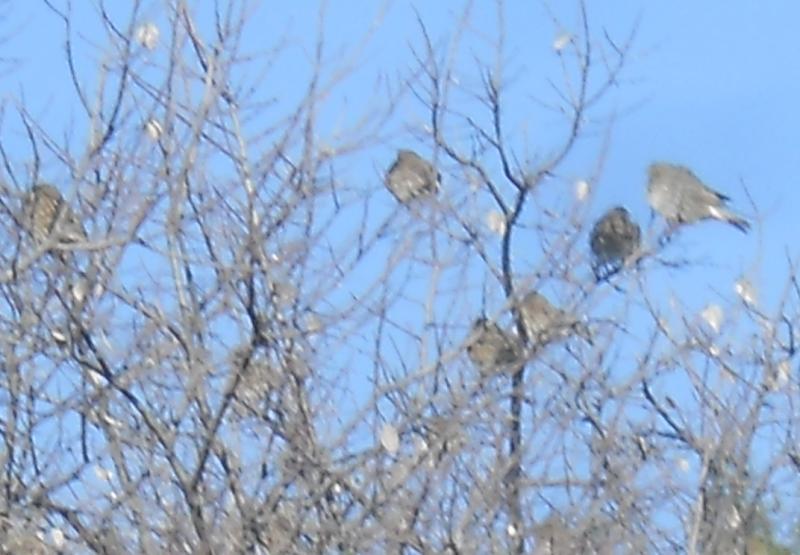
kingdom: Animalia
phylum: Chordata
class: Aves
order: Passeriformes
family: Emberizidae
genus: Emberiza
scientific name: Emberiza calandra
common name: Corn bunting
